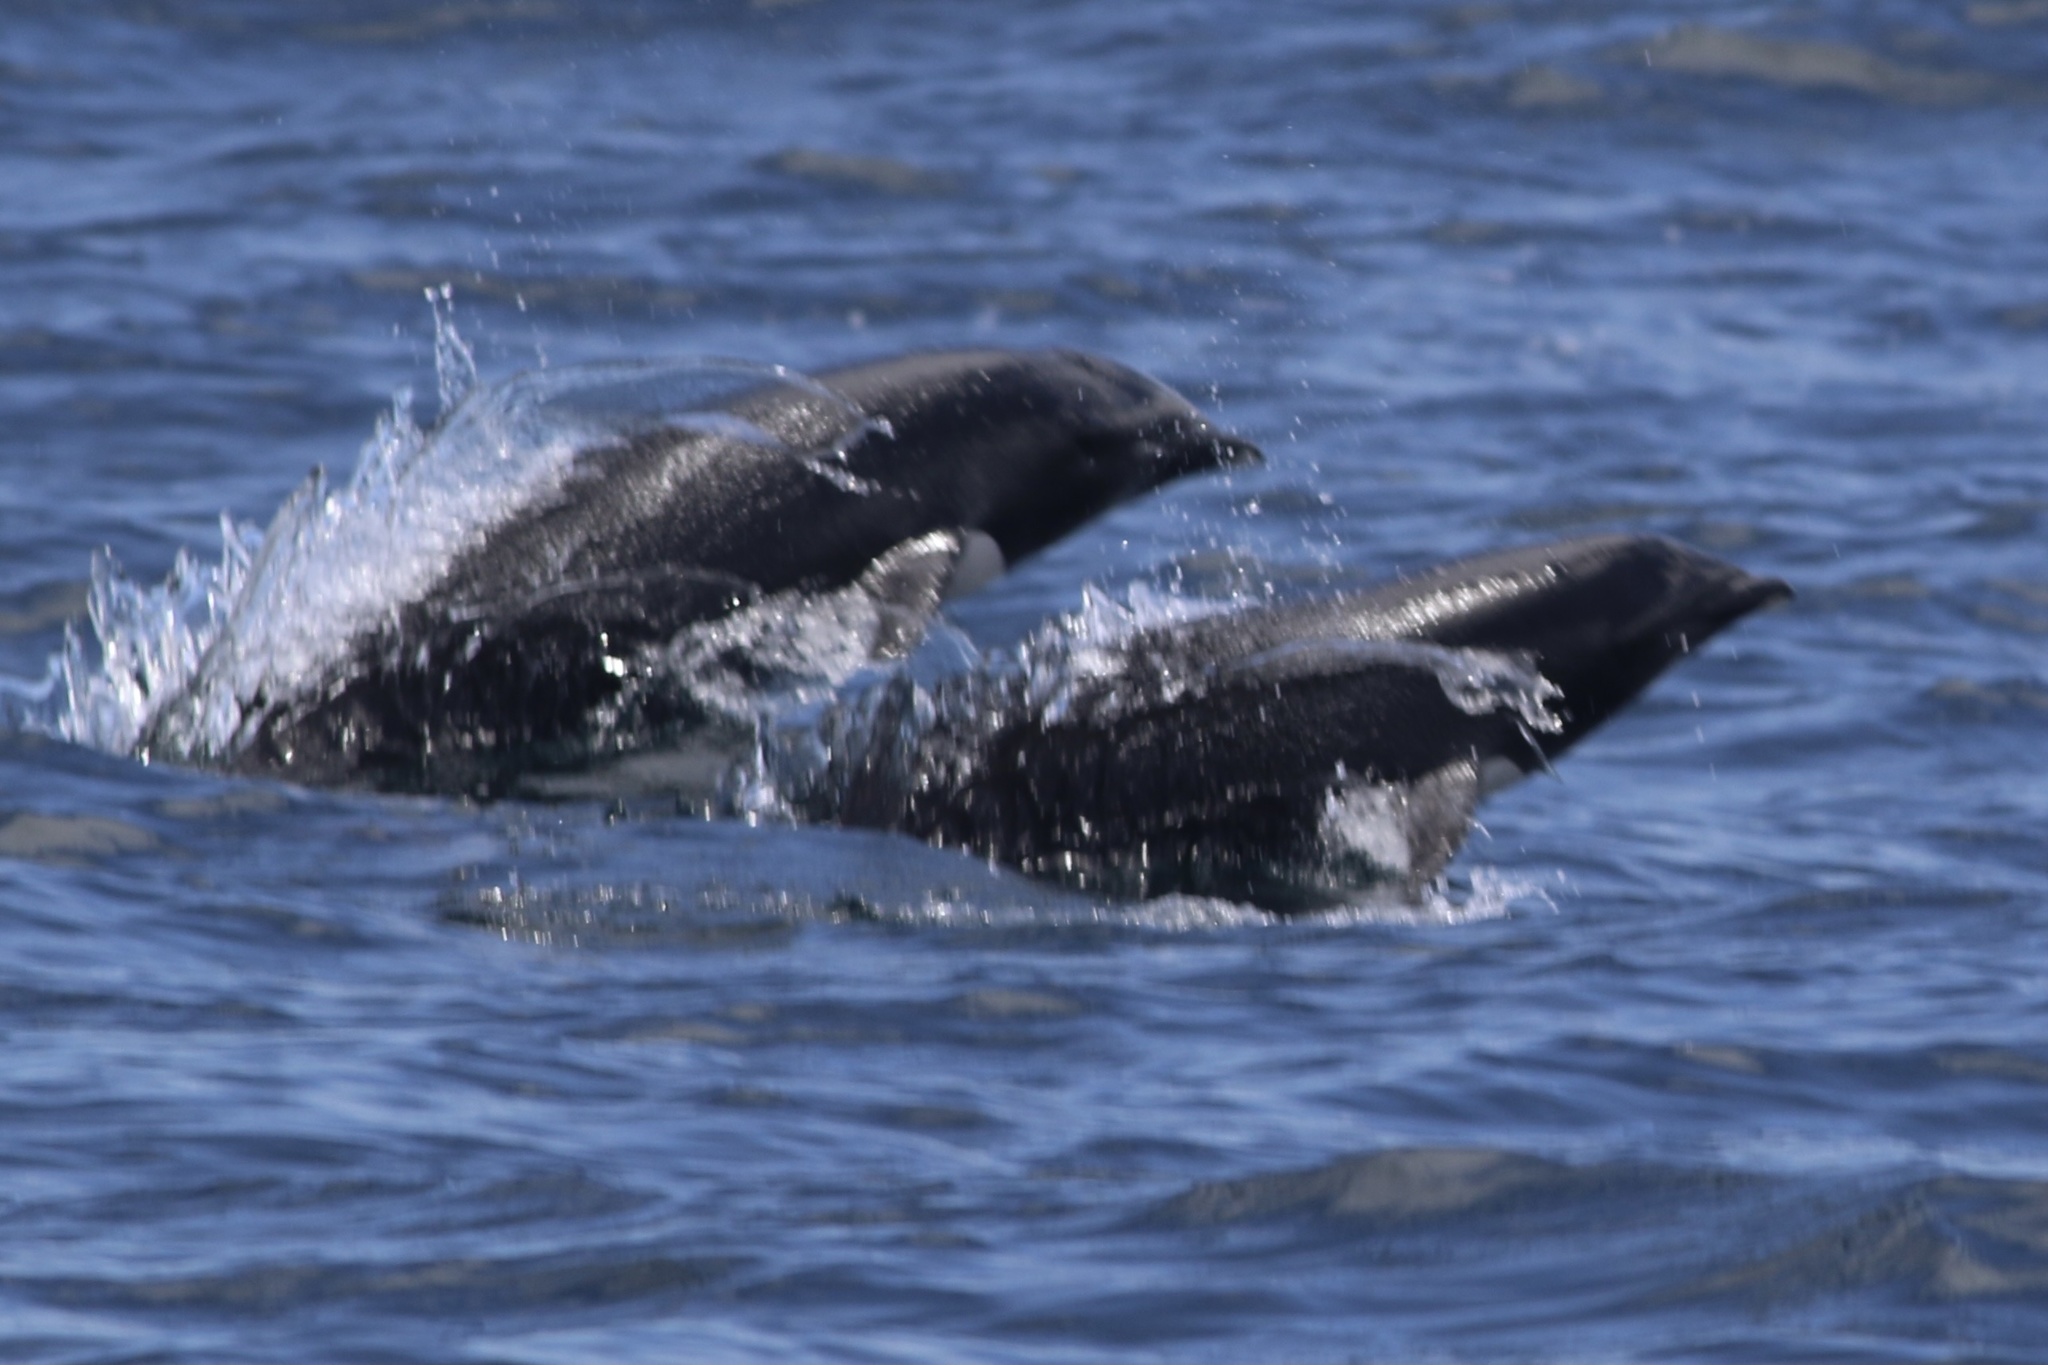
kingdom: Animalia
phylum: Chordata
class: Mammalia
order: Cetacea
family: Delphinidae
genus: Lissodelphis
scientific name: Lissodelphis borealis
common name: Northern right whale dolphin
